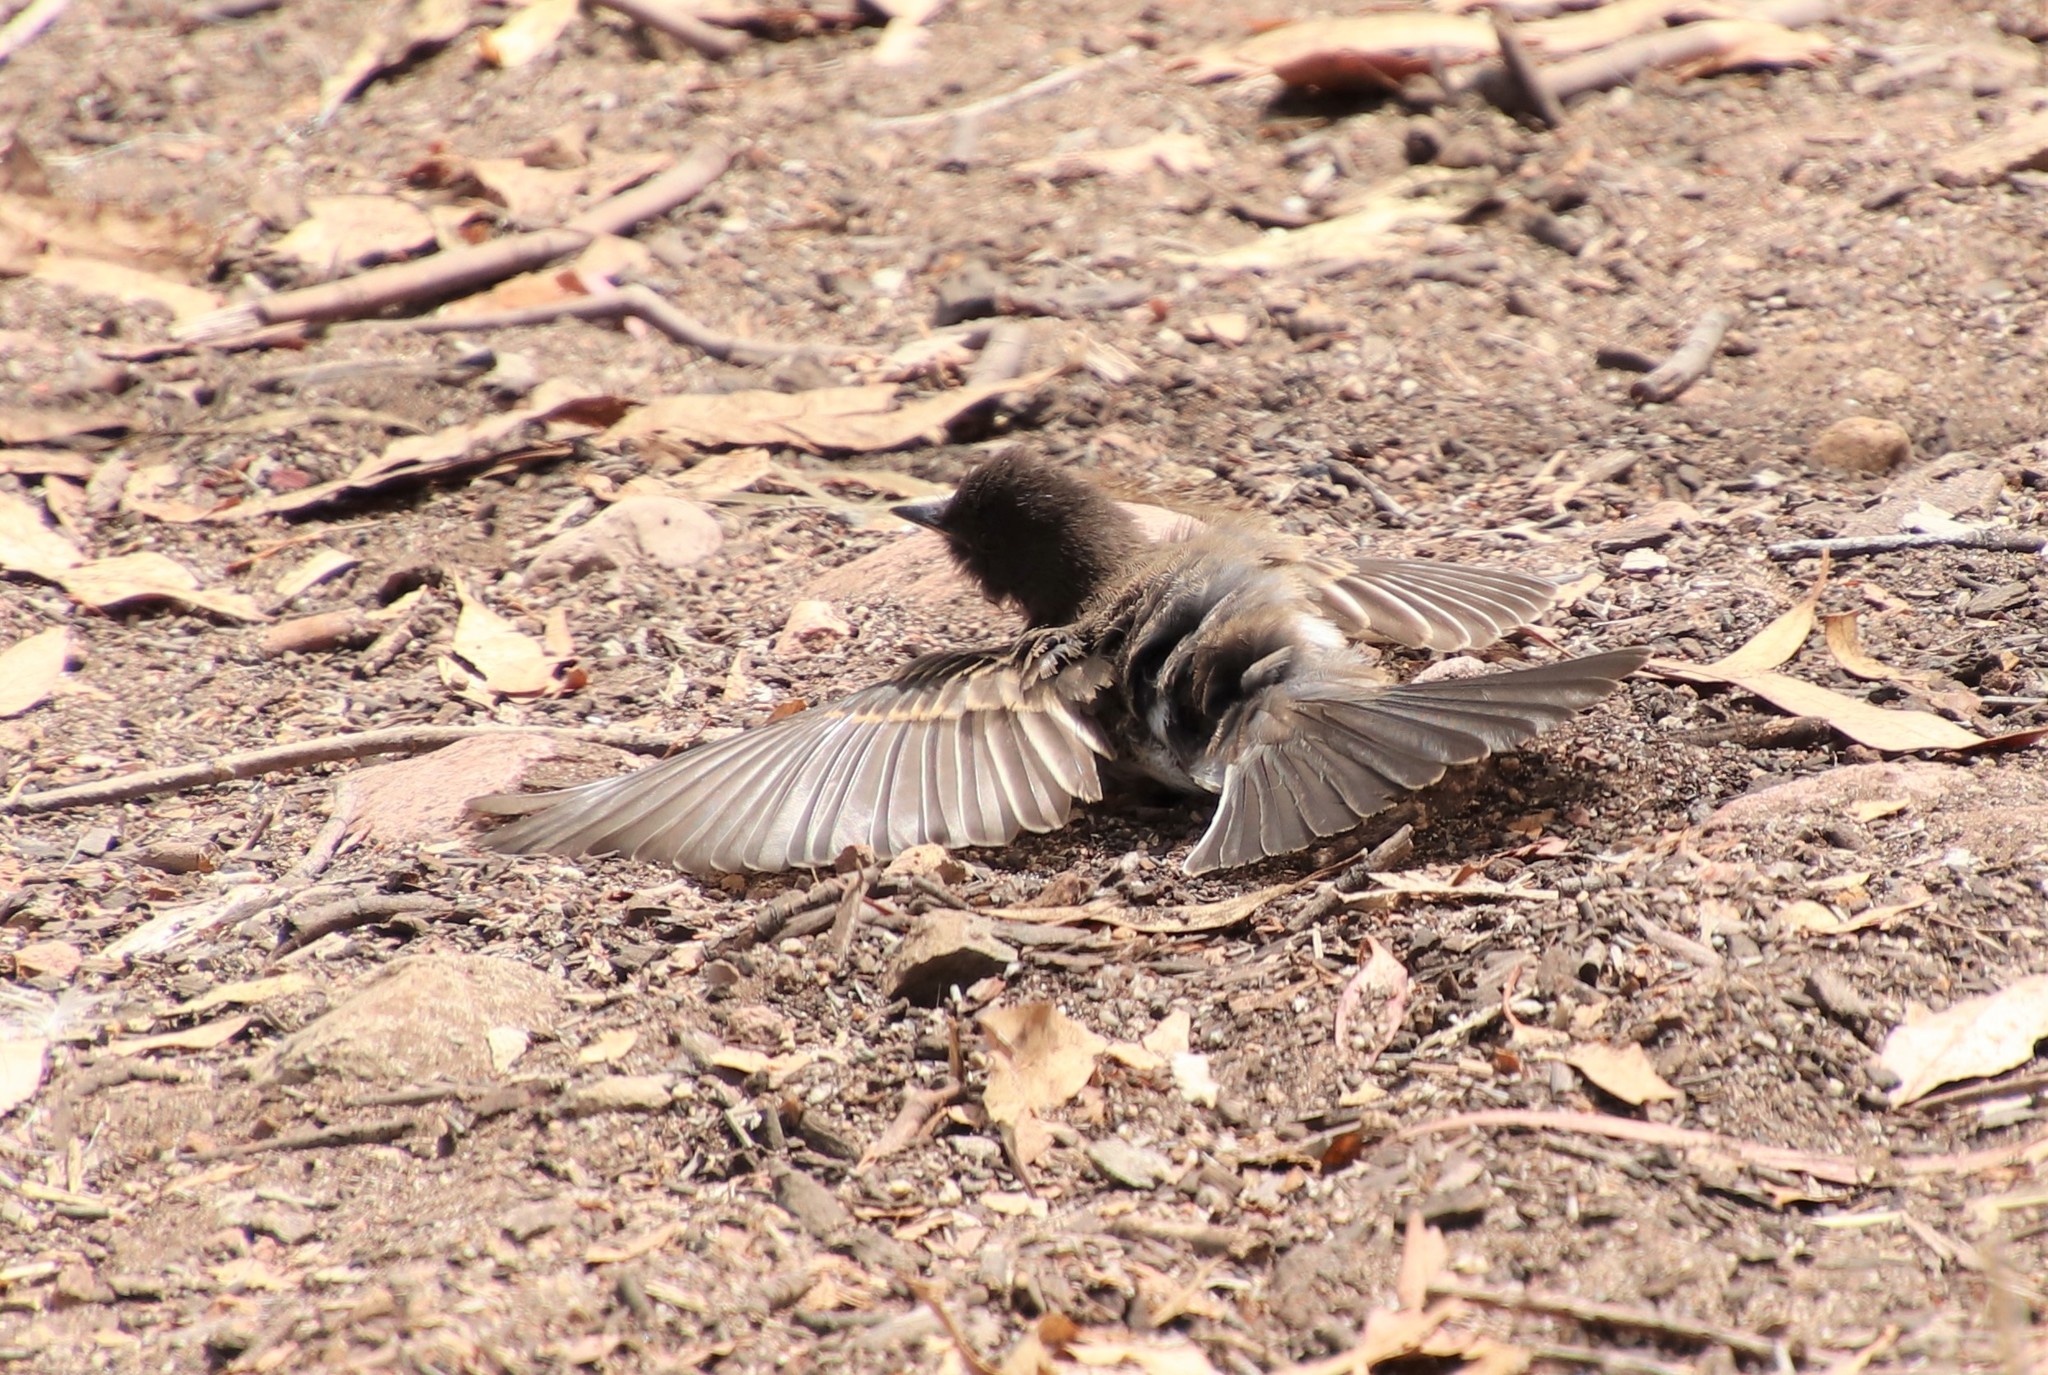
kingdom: Animalia
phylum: Chordata
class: Aves
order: Passeriformes
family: Tyrannidae
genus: Sayornis
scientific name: Sayornis nigricans
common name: Black phoebe
